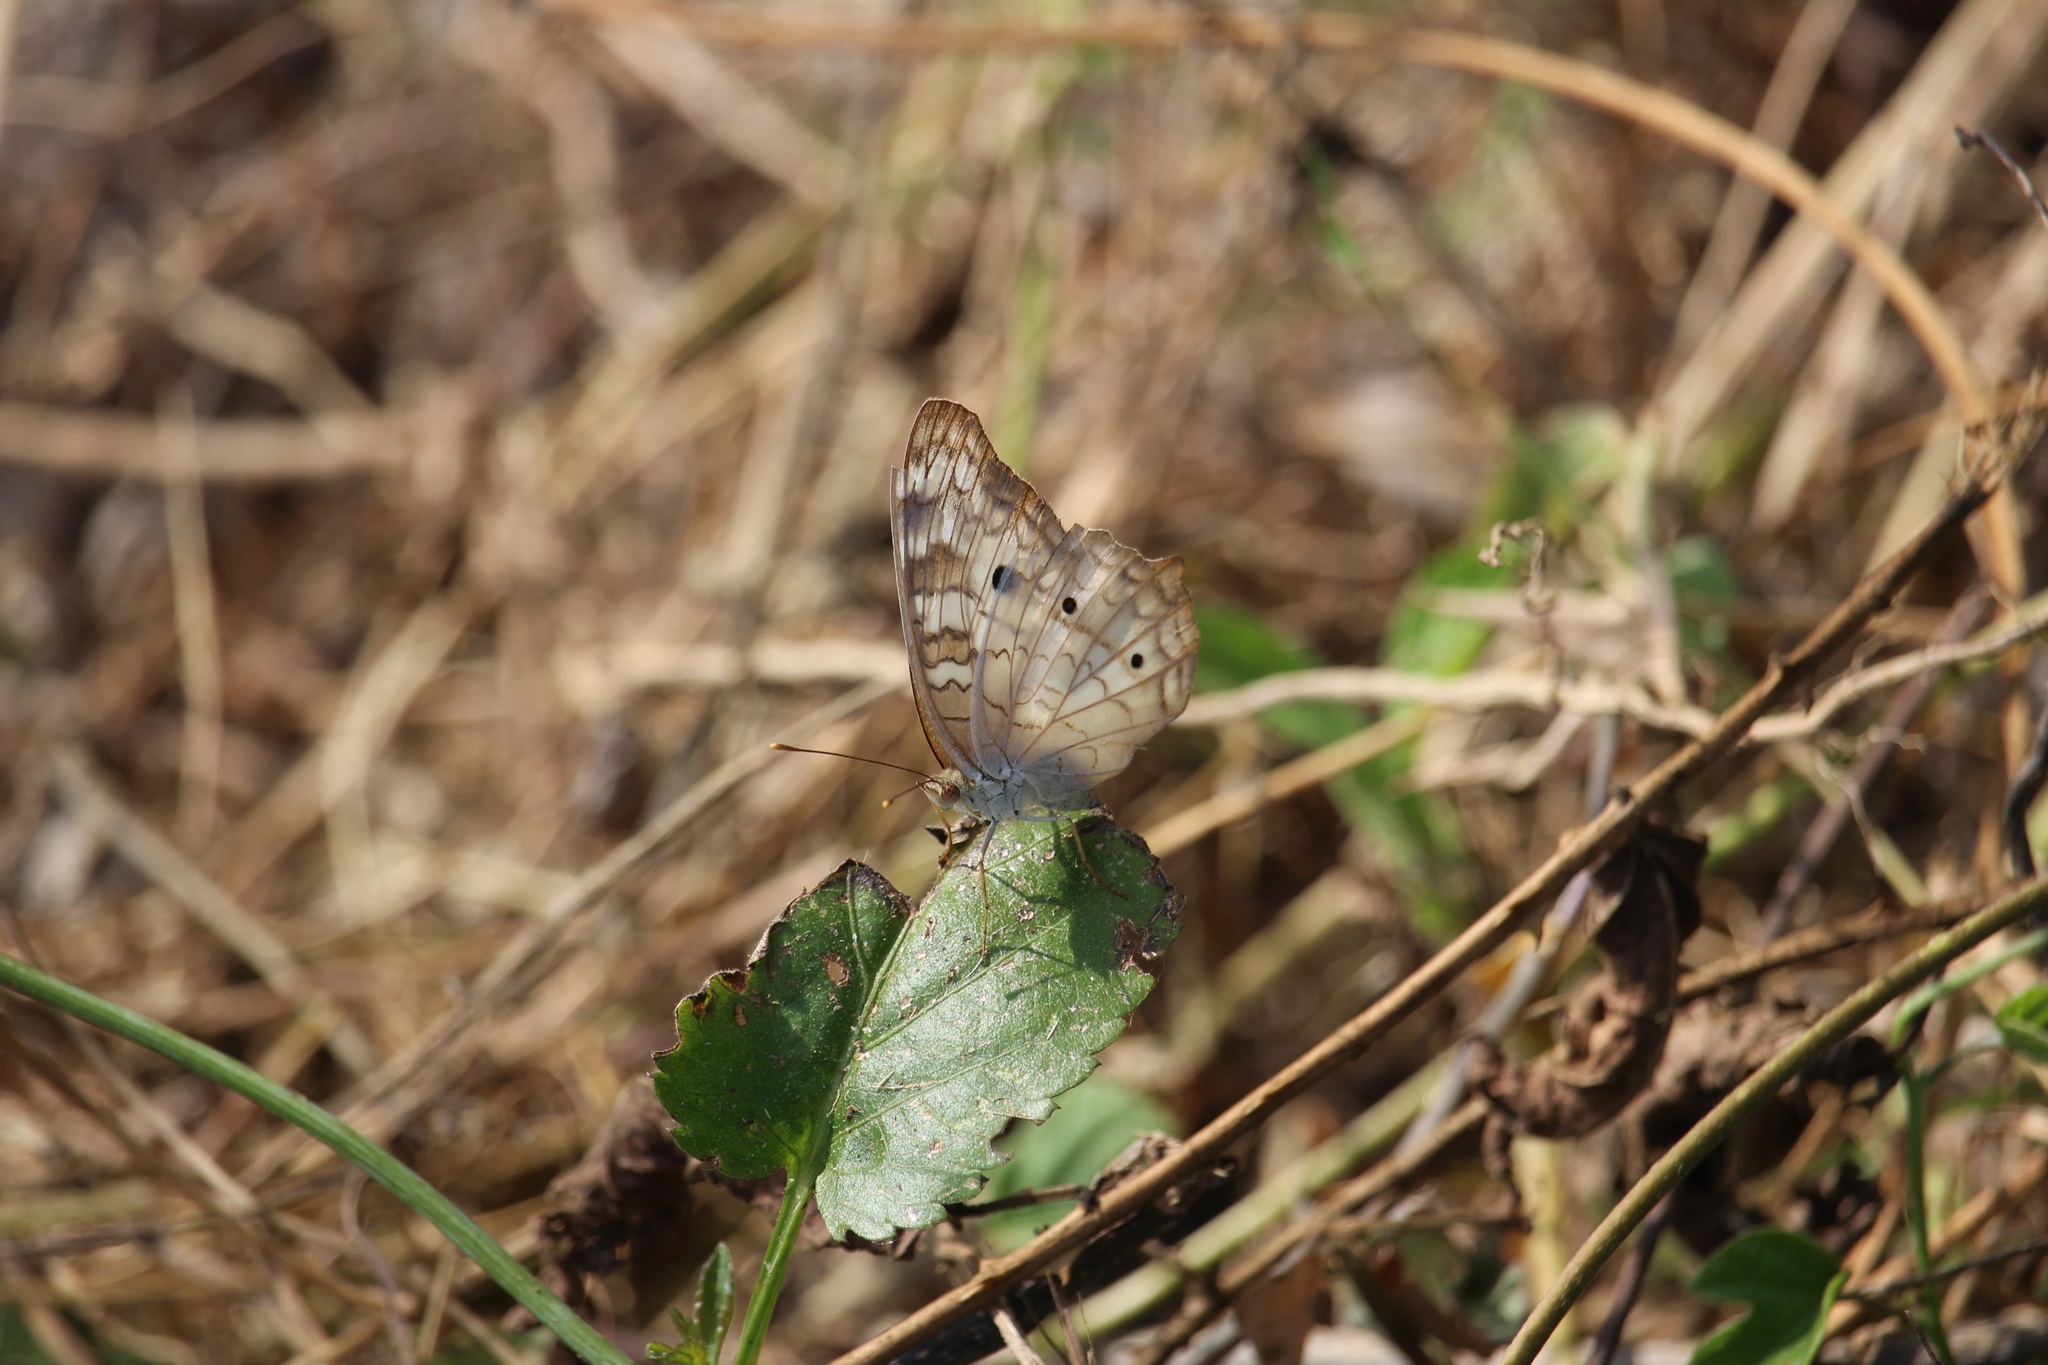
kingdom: Animalia
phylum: Arthropoda
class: Insecta
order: Lepidoptera
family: Nymphalidae
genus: Anartia
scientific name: Anartia jatrophae
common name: White peacock
